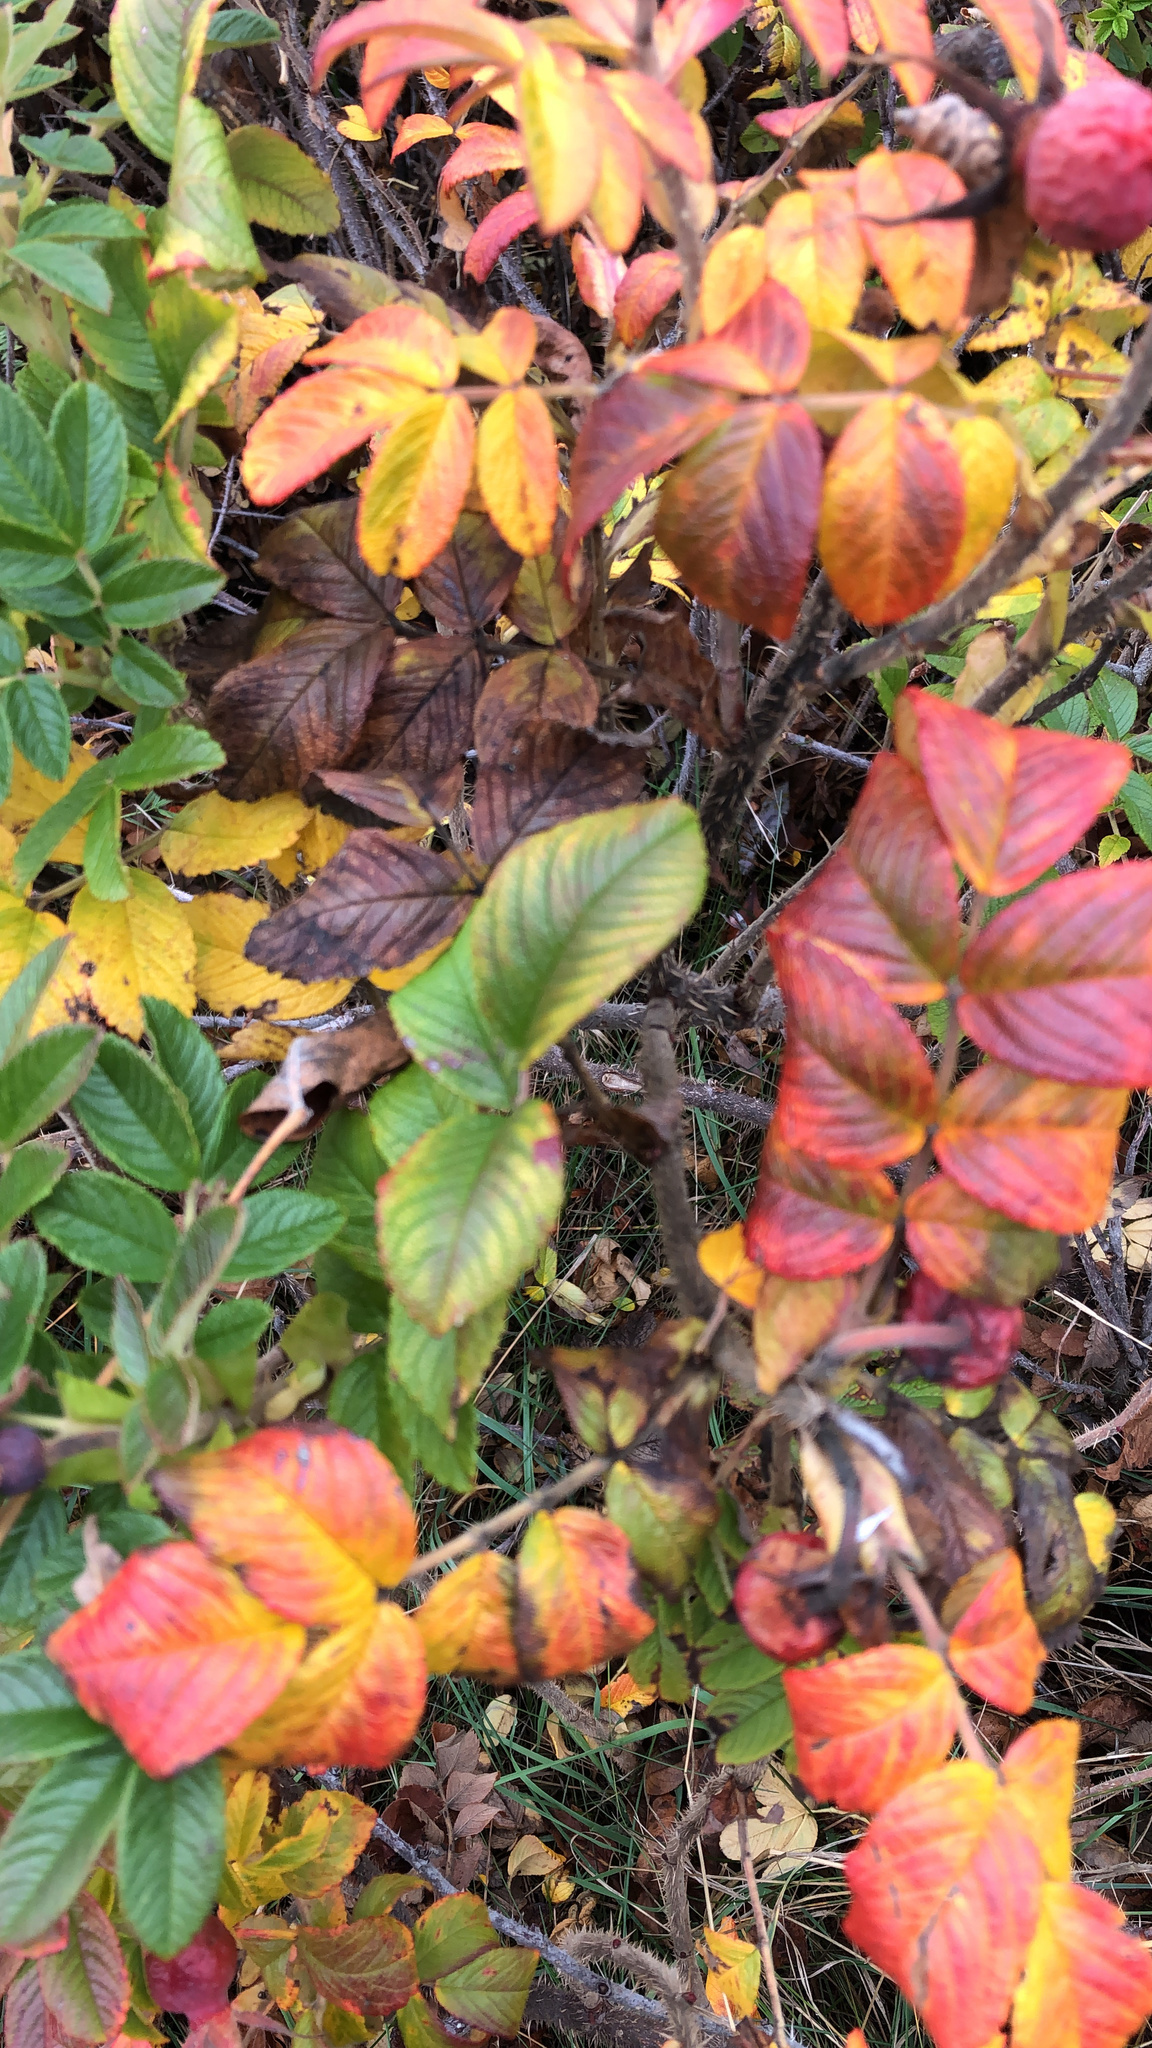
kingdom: Plantae
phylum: Tracheophyta
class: Magnoliopsida
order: Rosales
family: Rosaceae
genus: Rosa
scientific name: Rosa rugosa
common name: Japanese rose
